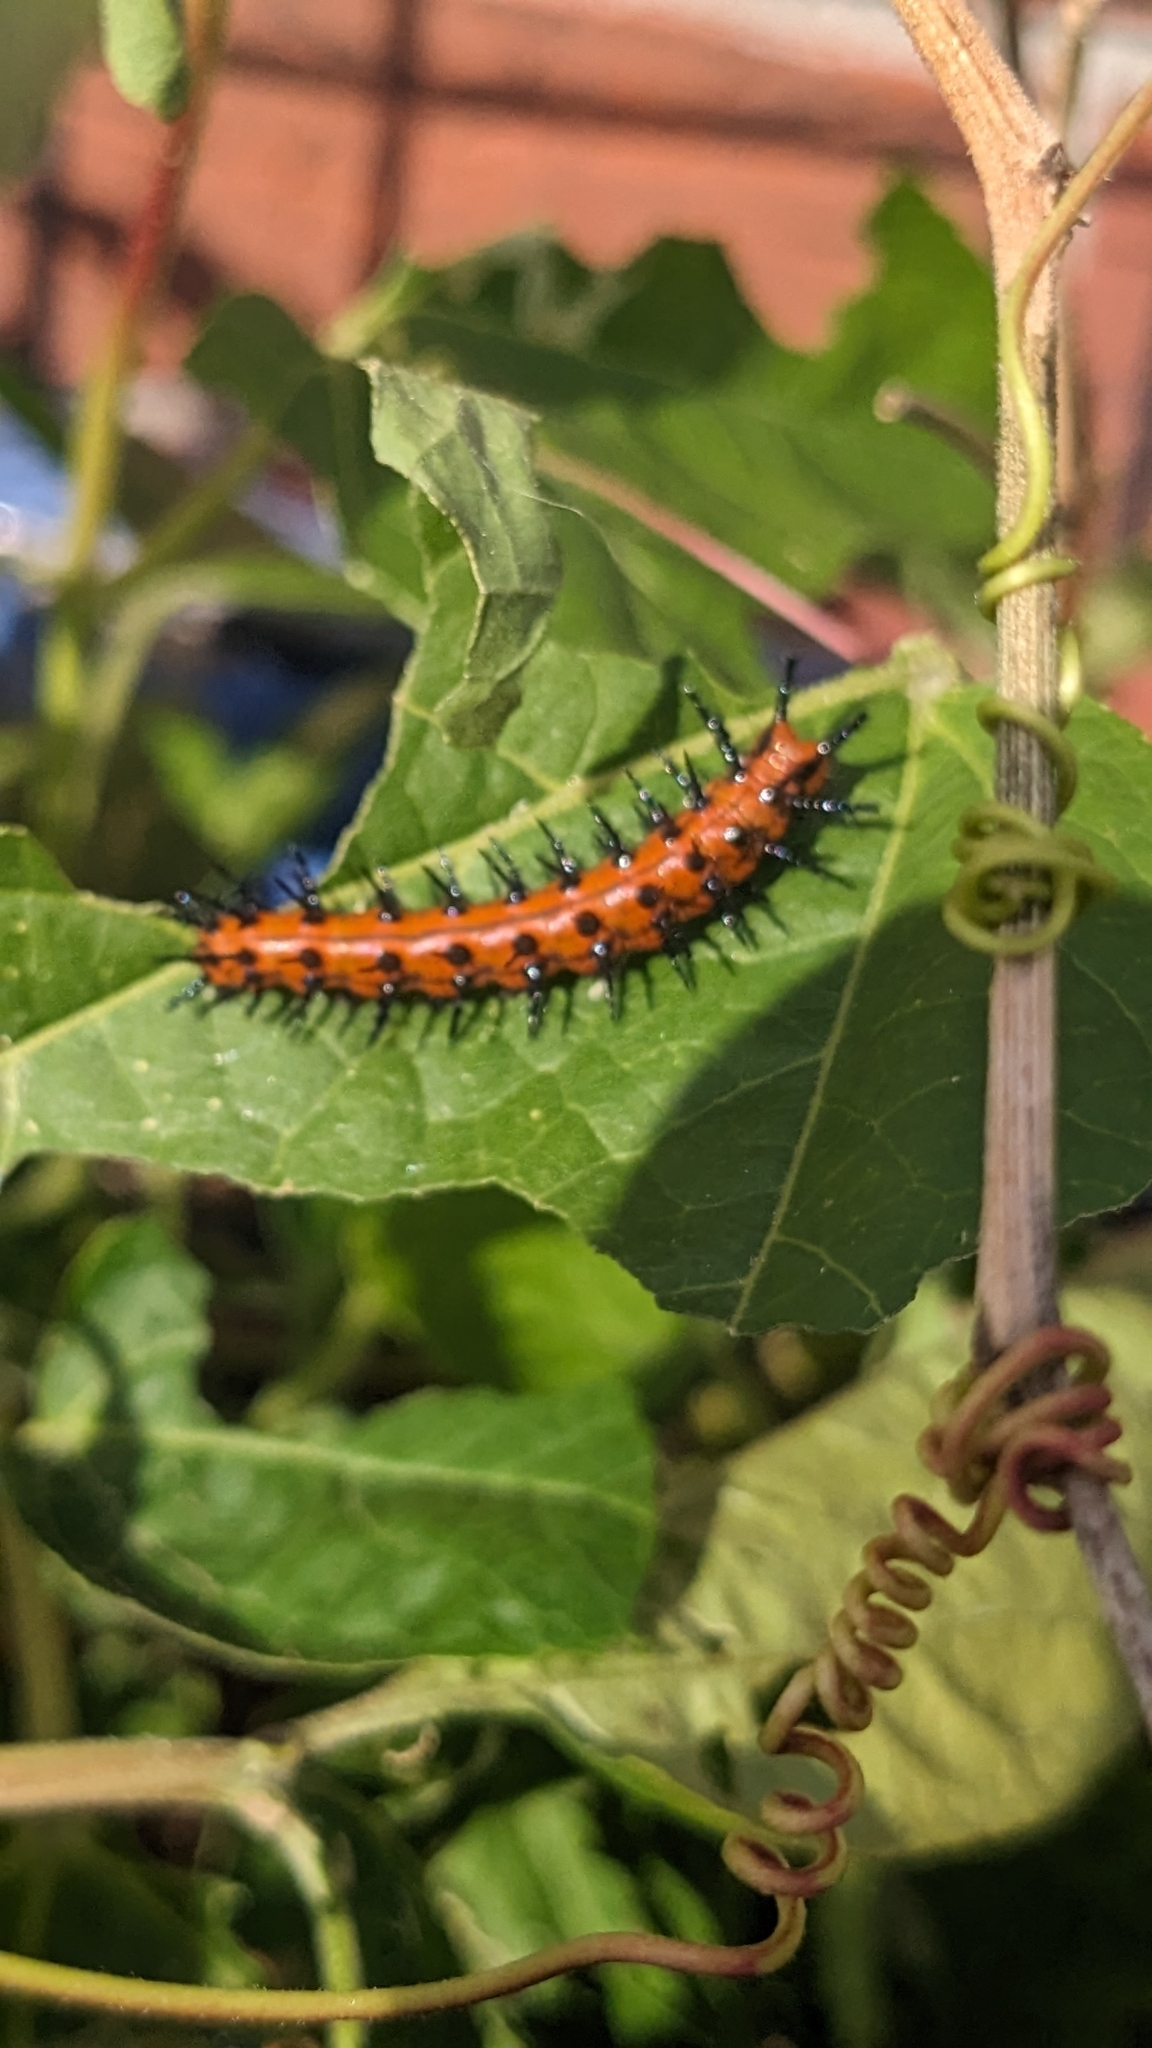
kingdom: Animalia
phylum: Arthropoda
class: Insecta
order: Lepidoptera
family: Nymphalidae
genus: Dione
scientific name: Dione vanillae
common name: Gulf fritillary
